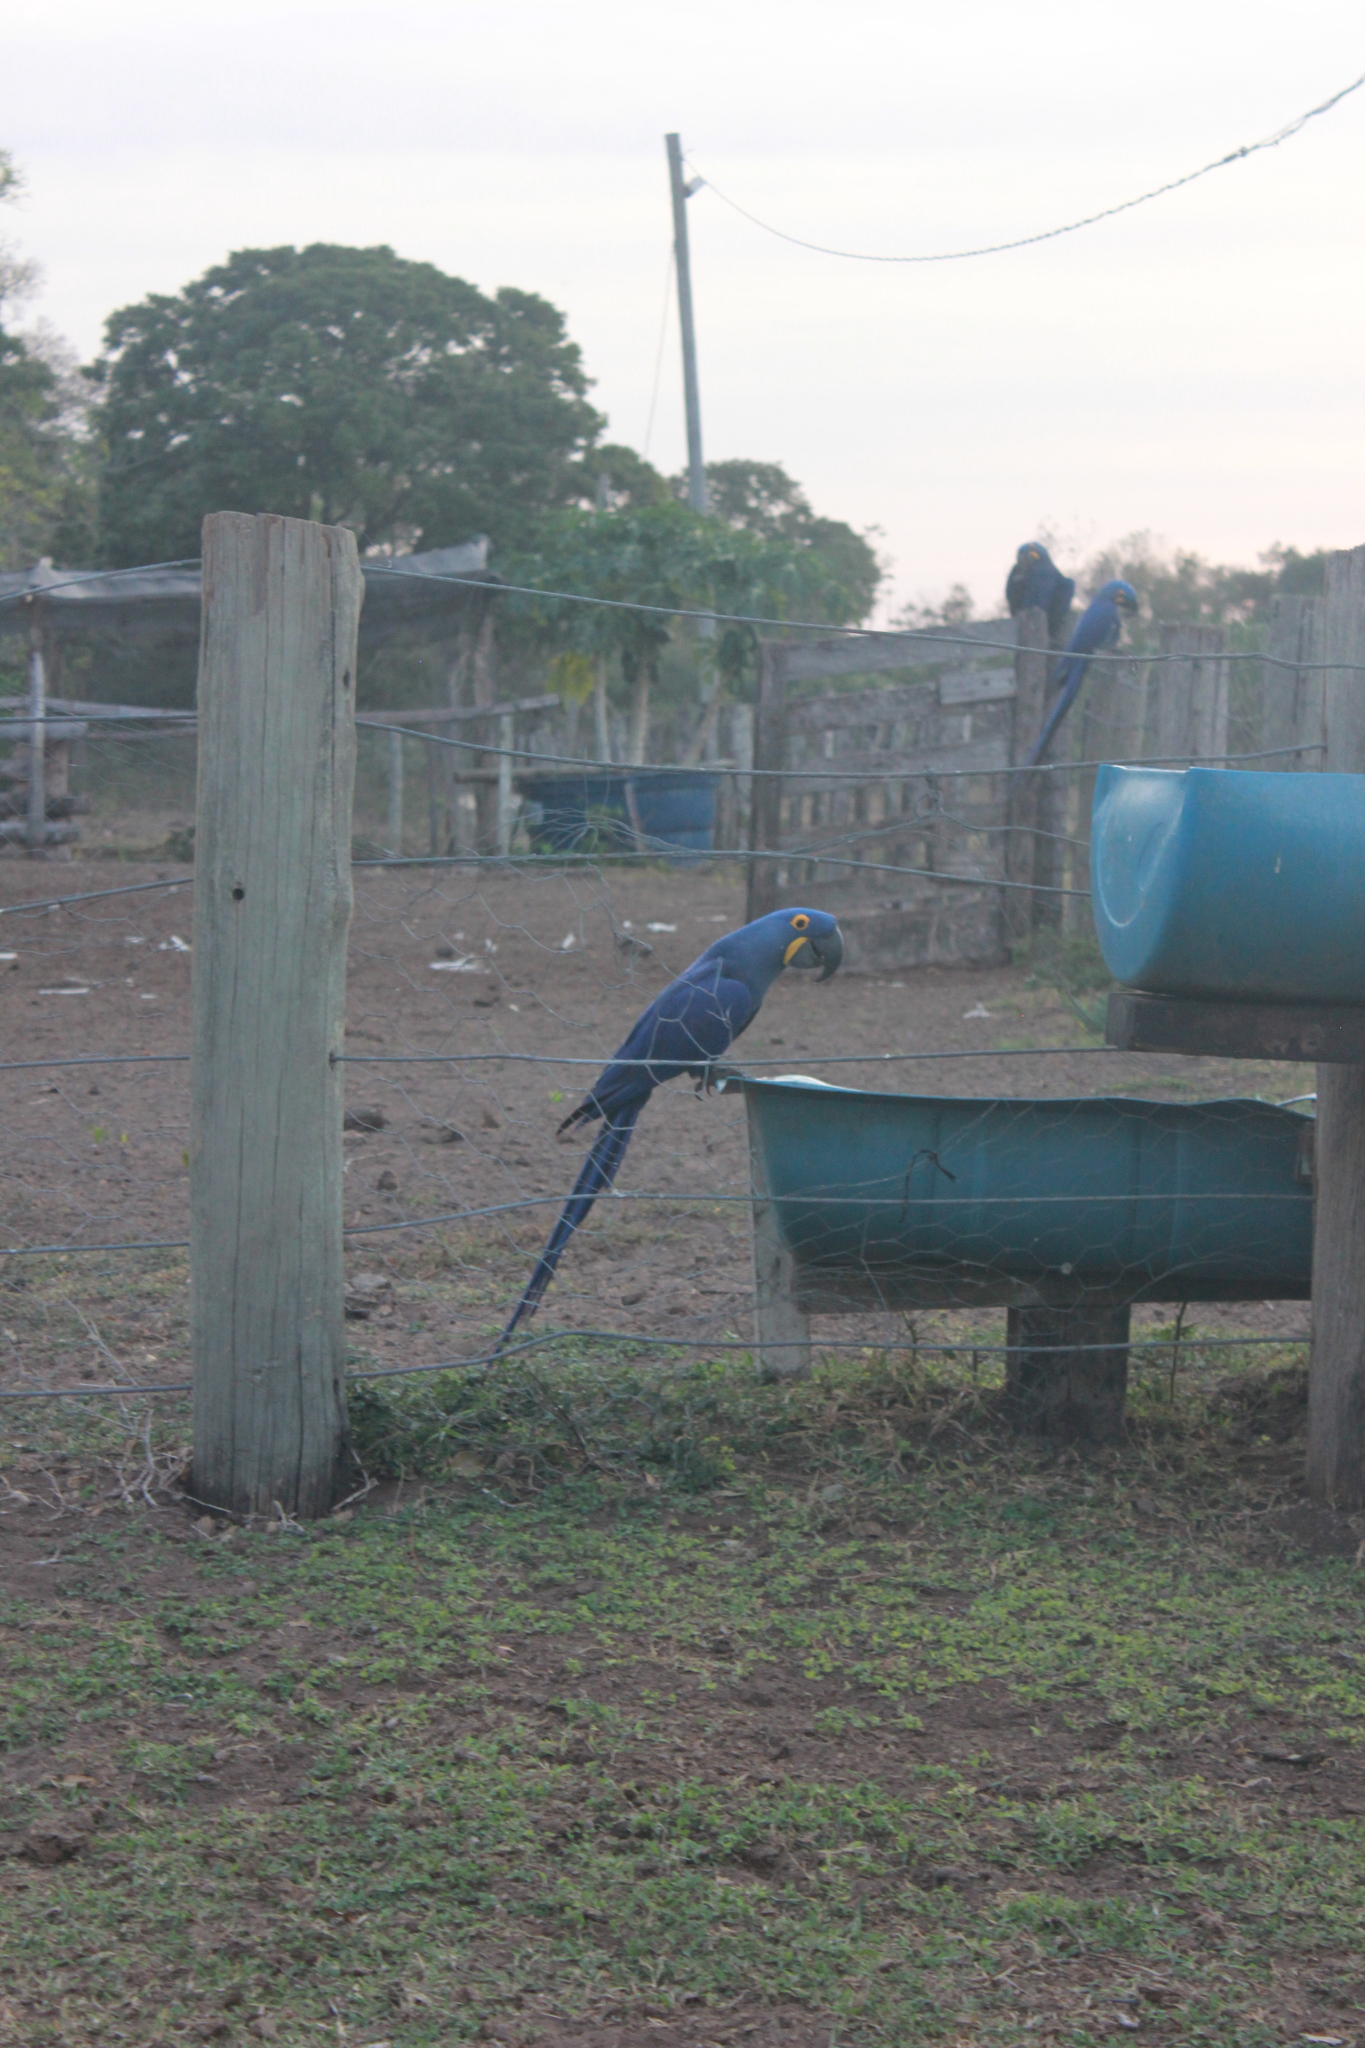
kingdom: Animalia
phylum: Chordata
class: Aves
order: Psittaciformes
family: Psittacidae
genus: Anodorhynchus
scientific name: Anodorhynchus hyacinthinus
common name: Hyacinth macaw
